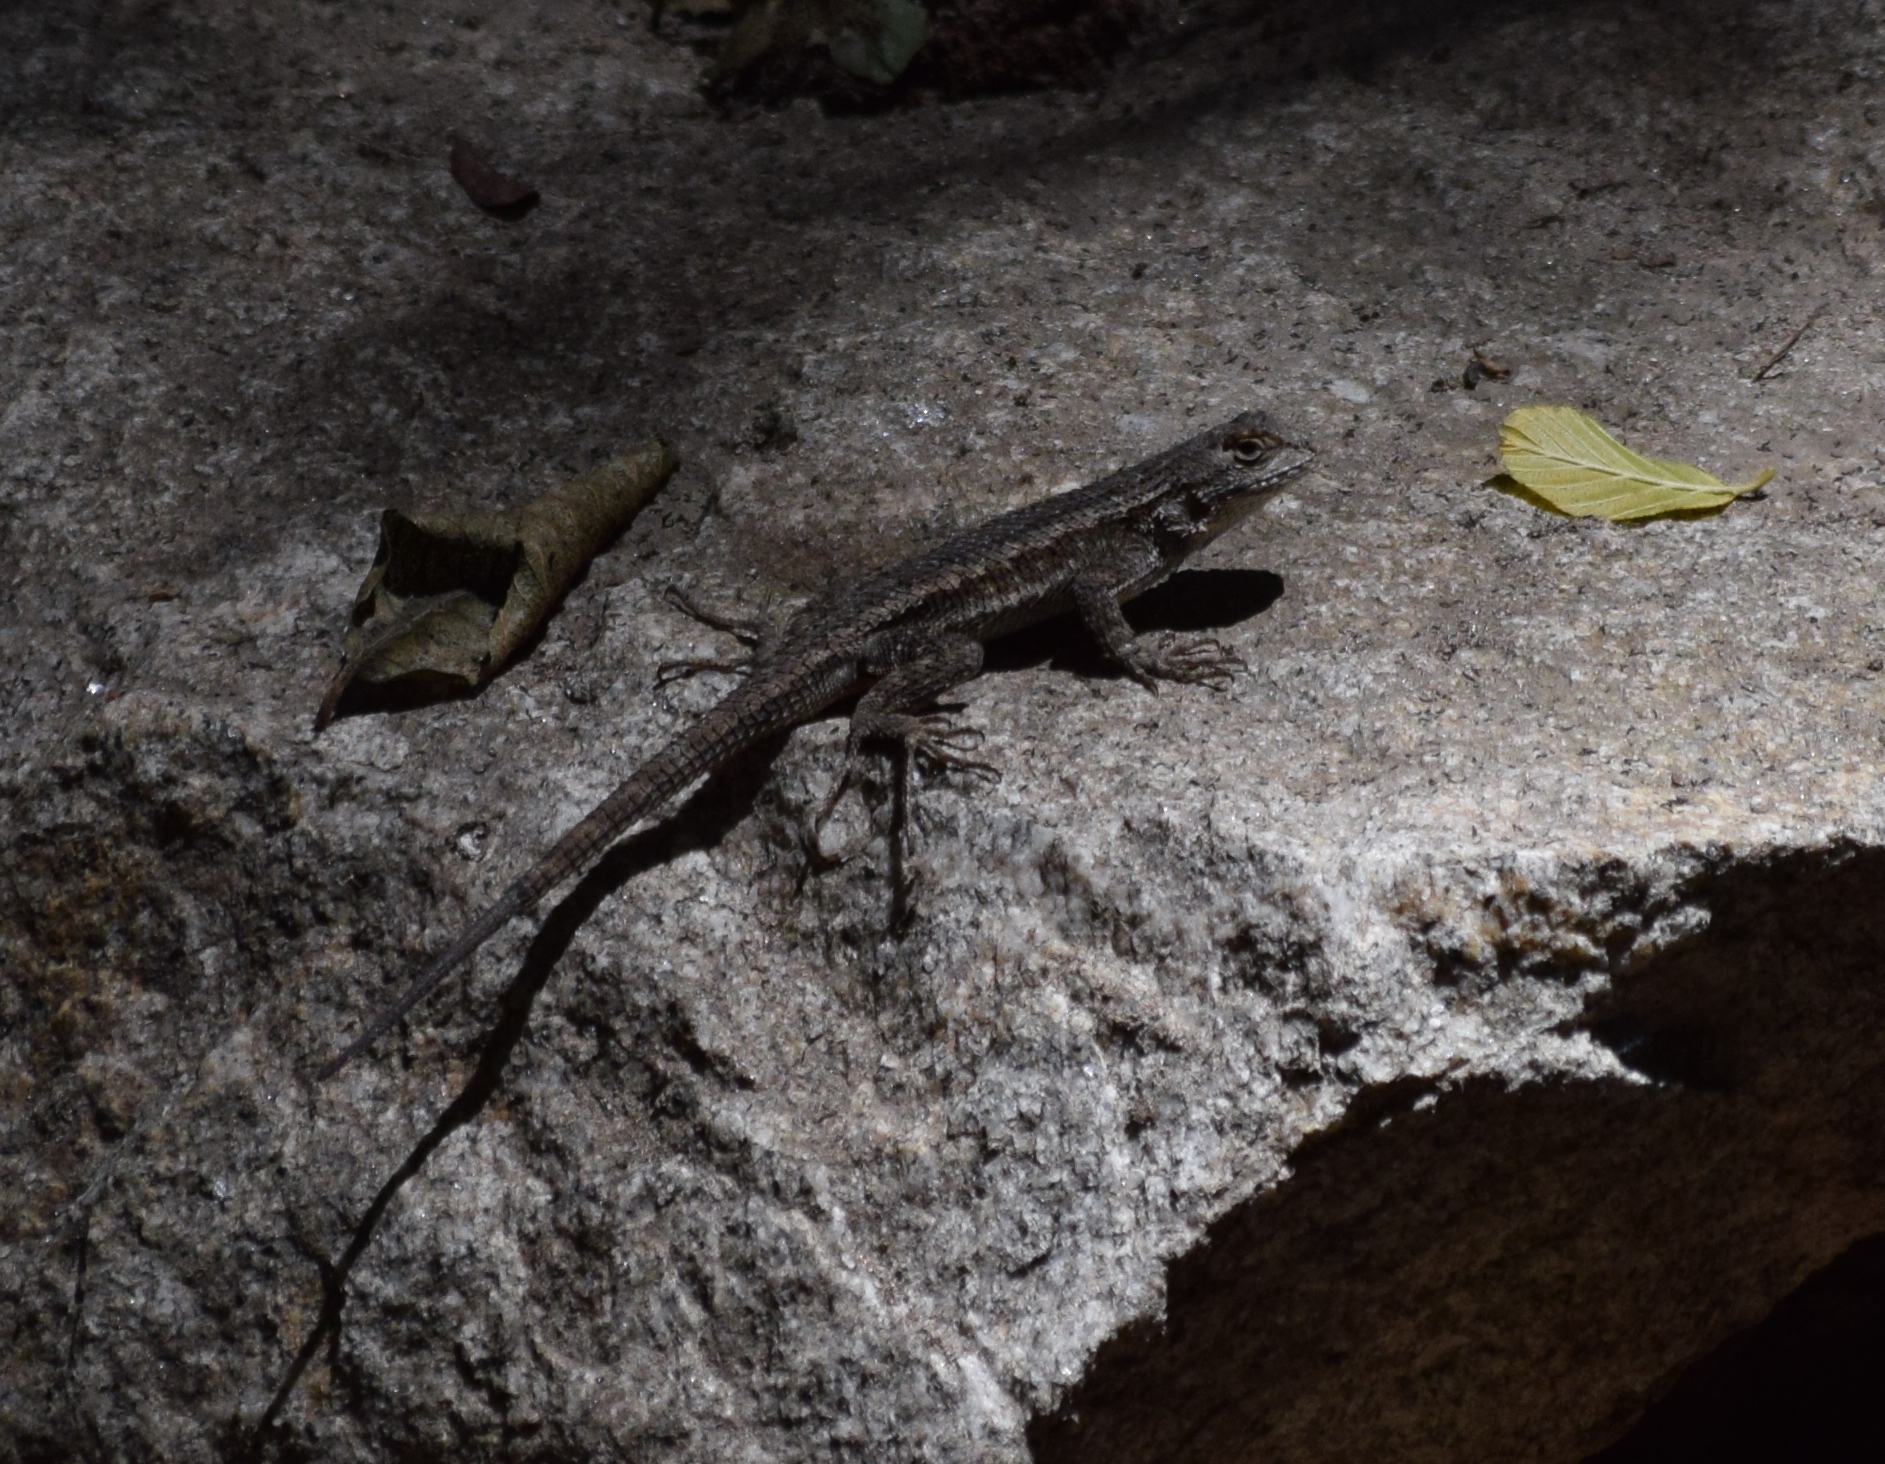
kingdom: Animalia
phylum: Chordata
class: Squamata
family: Phrynosomatidae
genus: Sceloporus
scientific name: Sceloporus occidentalis
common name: Western fence lizard
